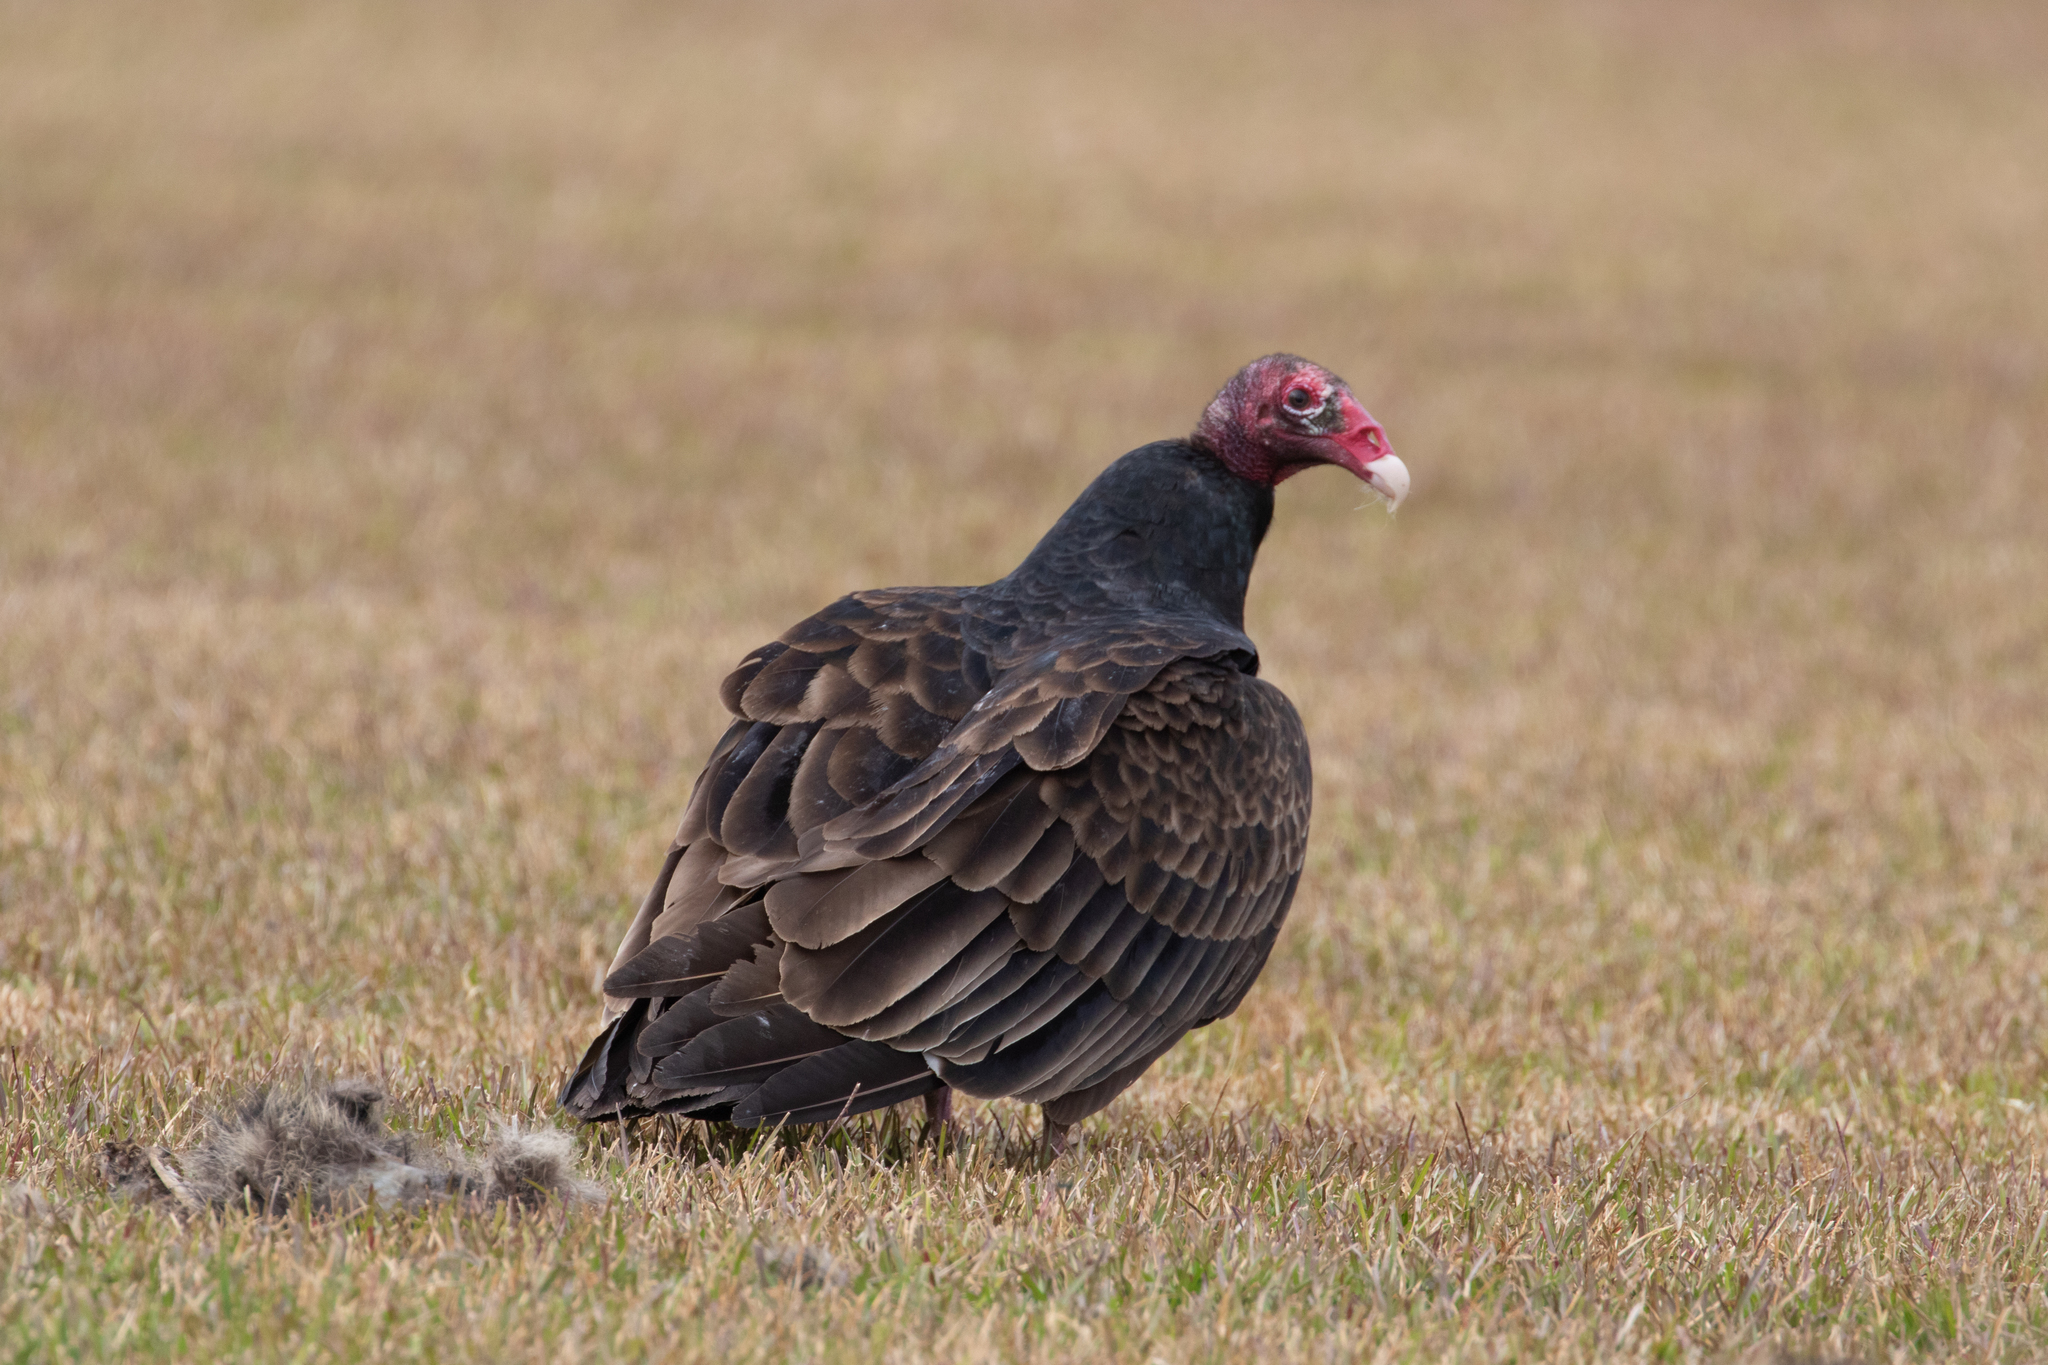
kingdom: Animalia
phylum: Chordata
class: Aves
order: Accipitriformes
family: Cathartidae
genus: Cathartes
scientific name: Cathartes aura
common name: Turkey vulture
